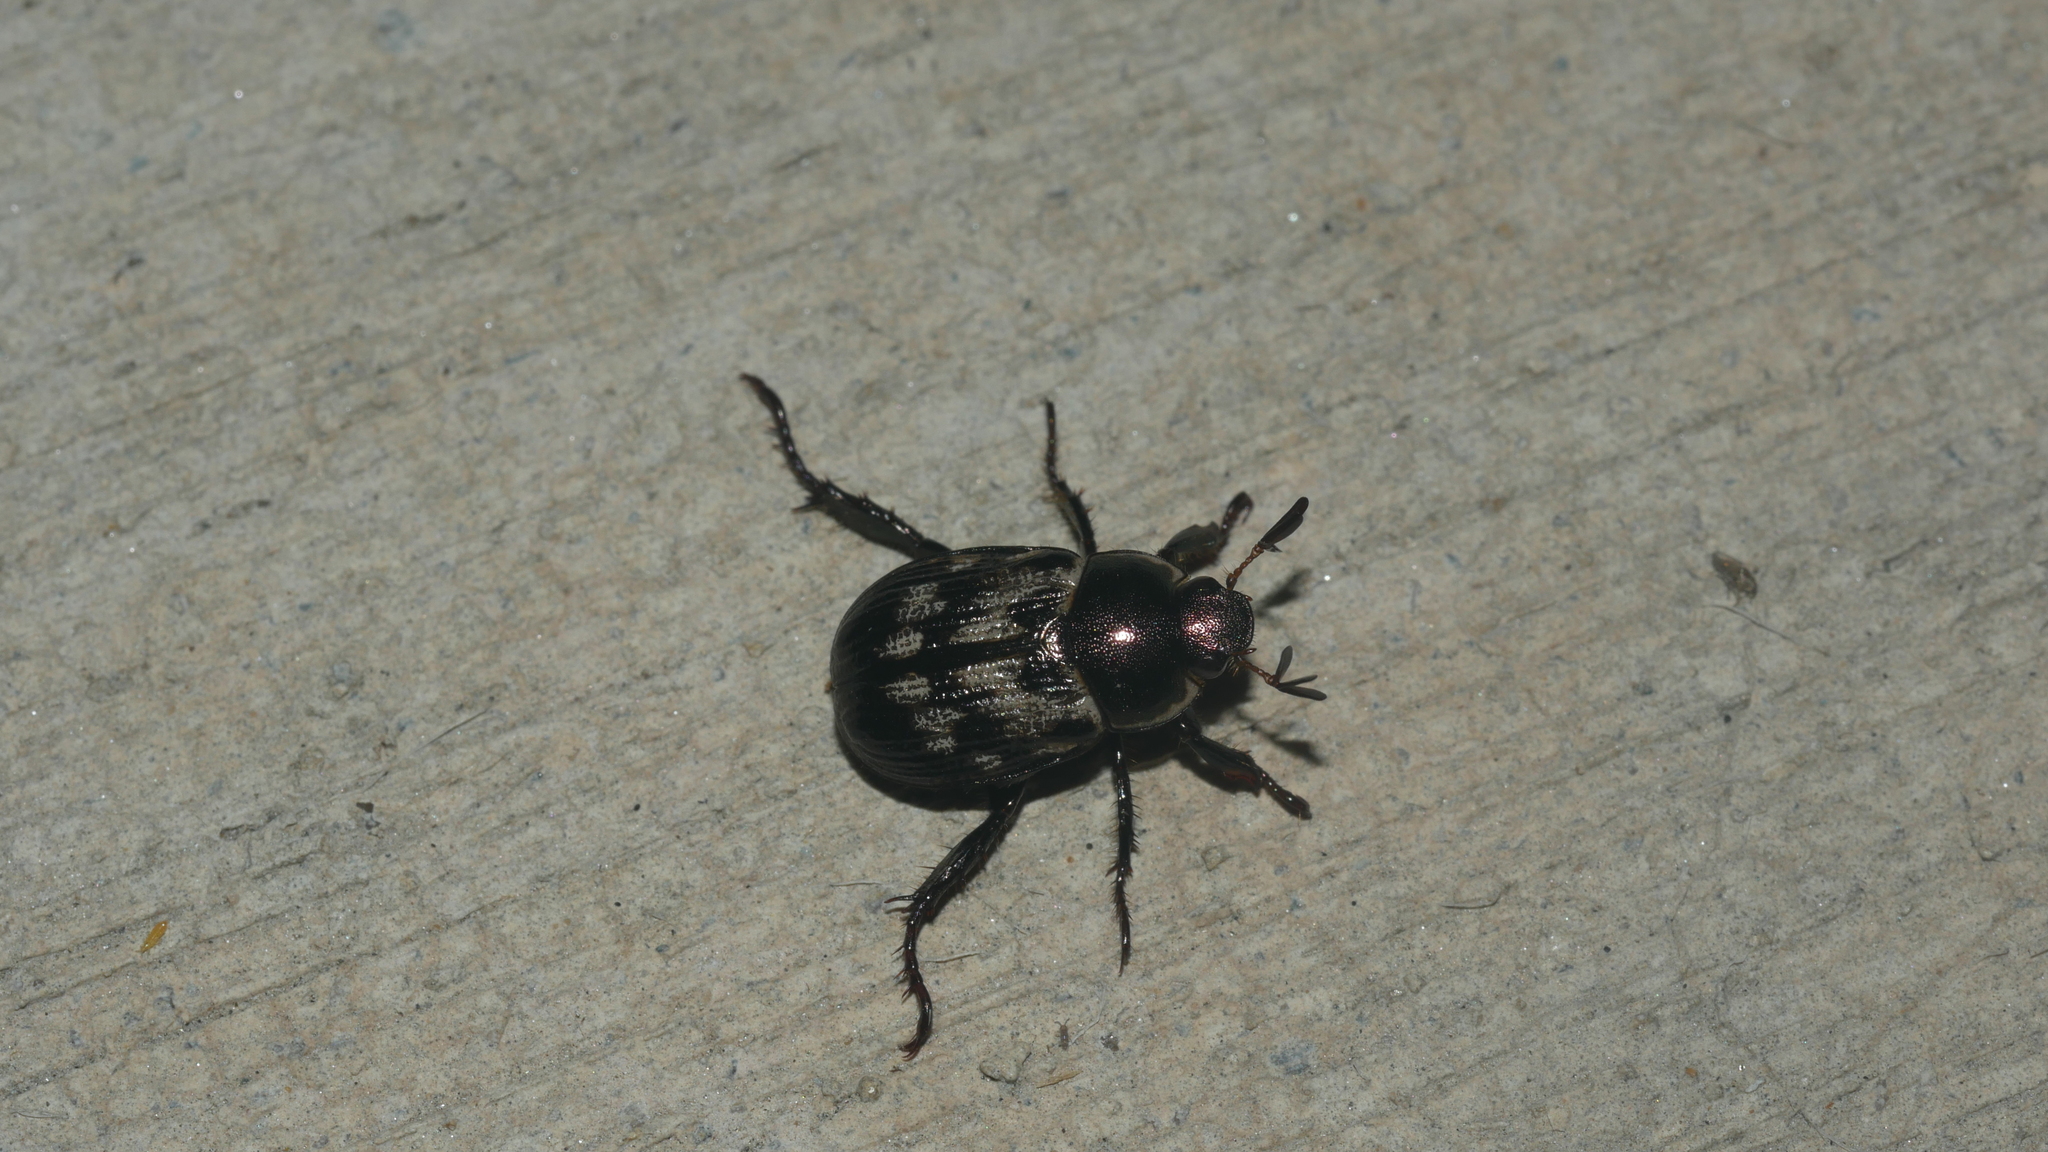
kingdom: Animalia
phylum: Arthropoda
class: Insecta
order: Coleoptera
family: Scarabaeidae
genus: Exomala
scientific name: Exomala orientalis
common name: Oriental beetle
